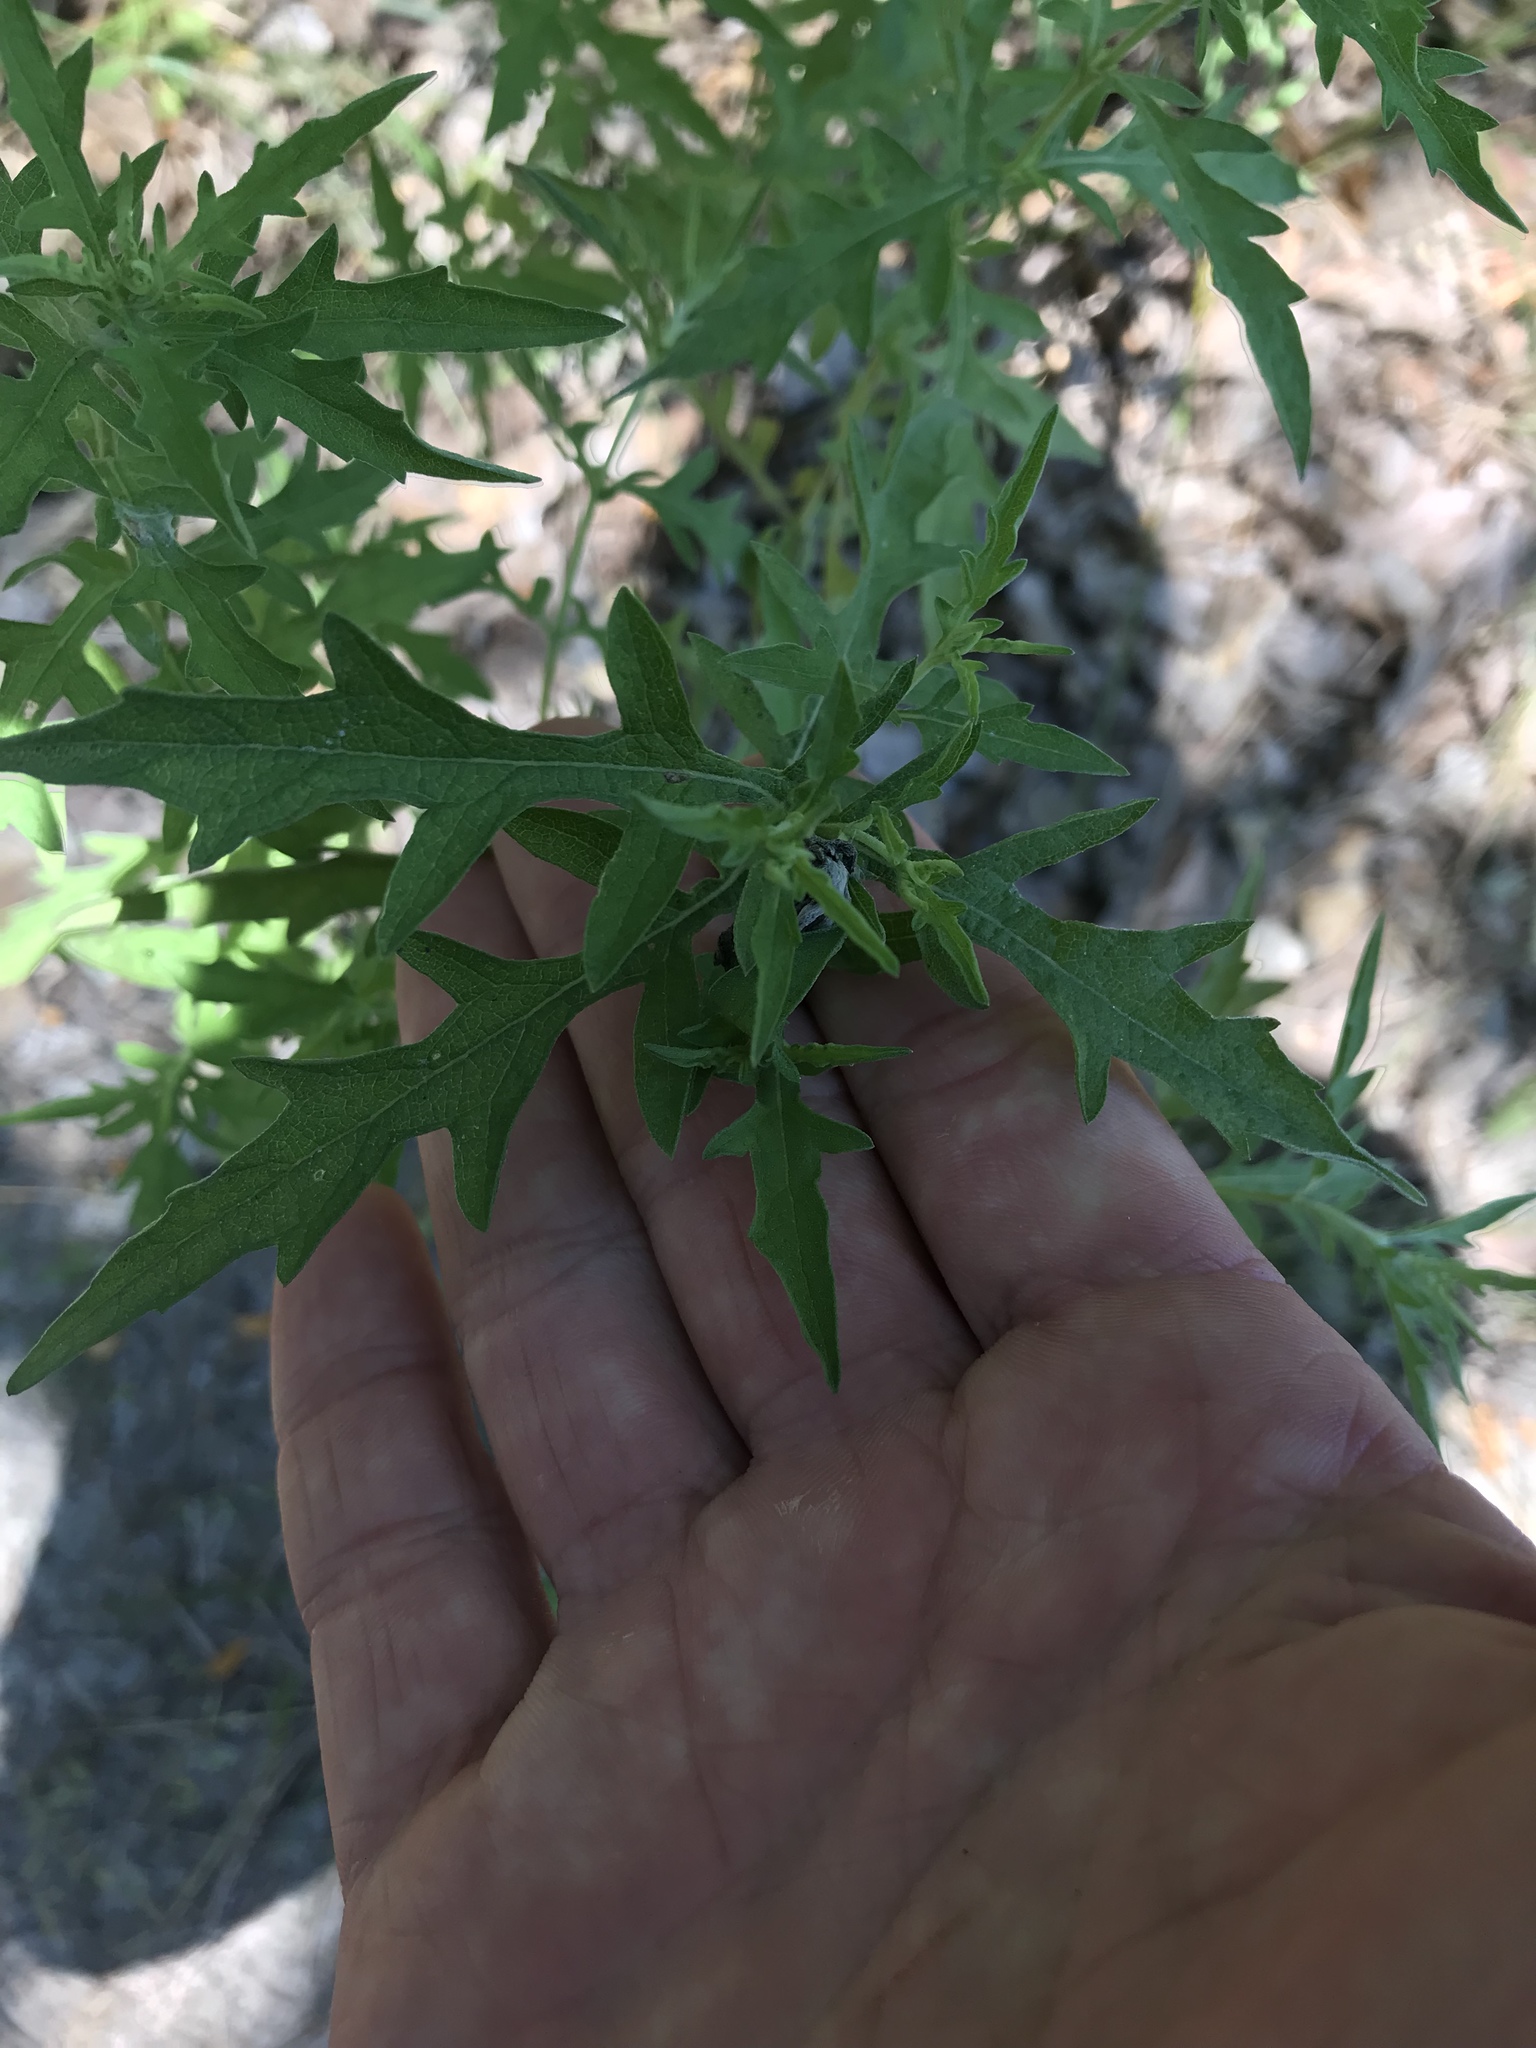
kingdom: Plantae
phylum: Tracheophyta
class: Magnoliopsida
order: Asterales
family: Asteraceae
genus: Ambrosia
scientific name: Ambrosia psilostachya
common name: Perennial ragweed
